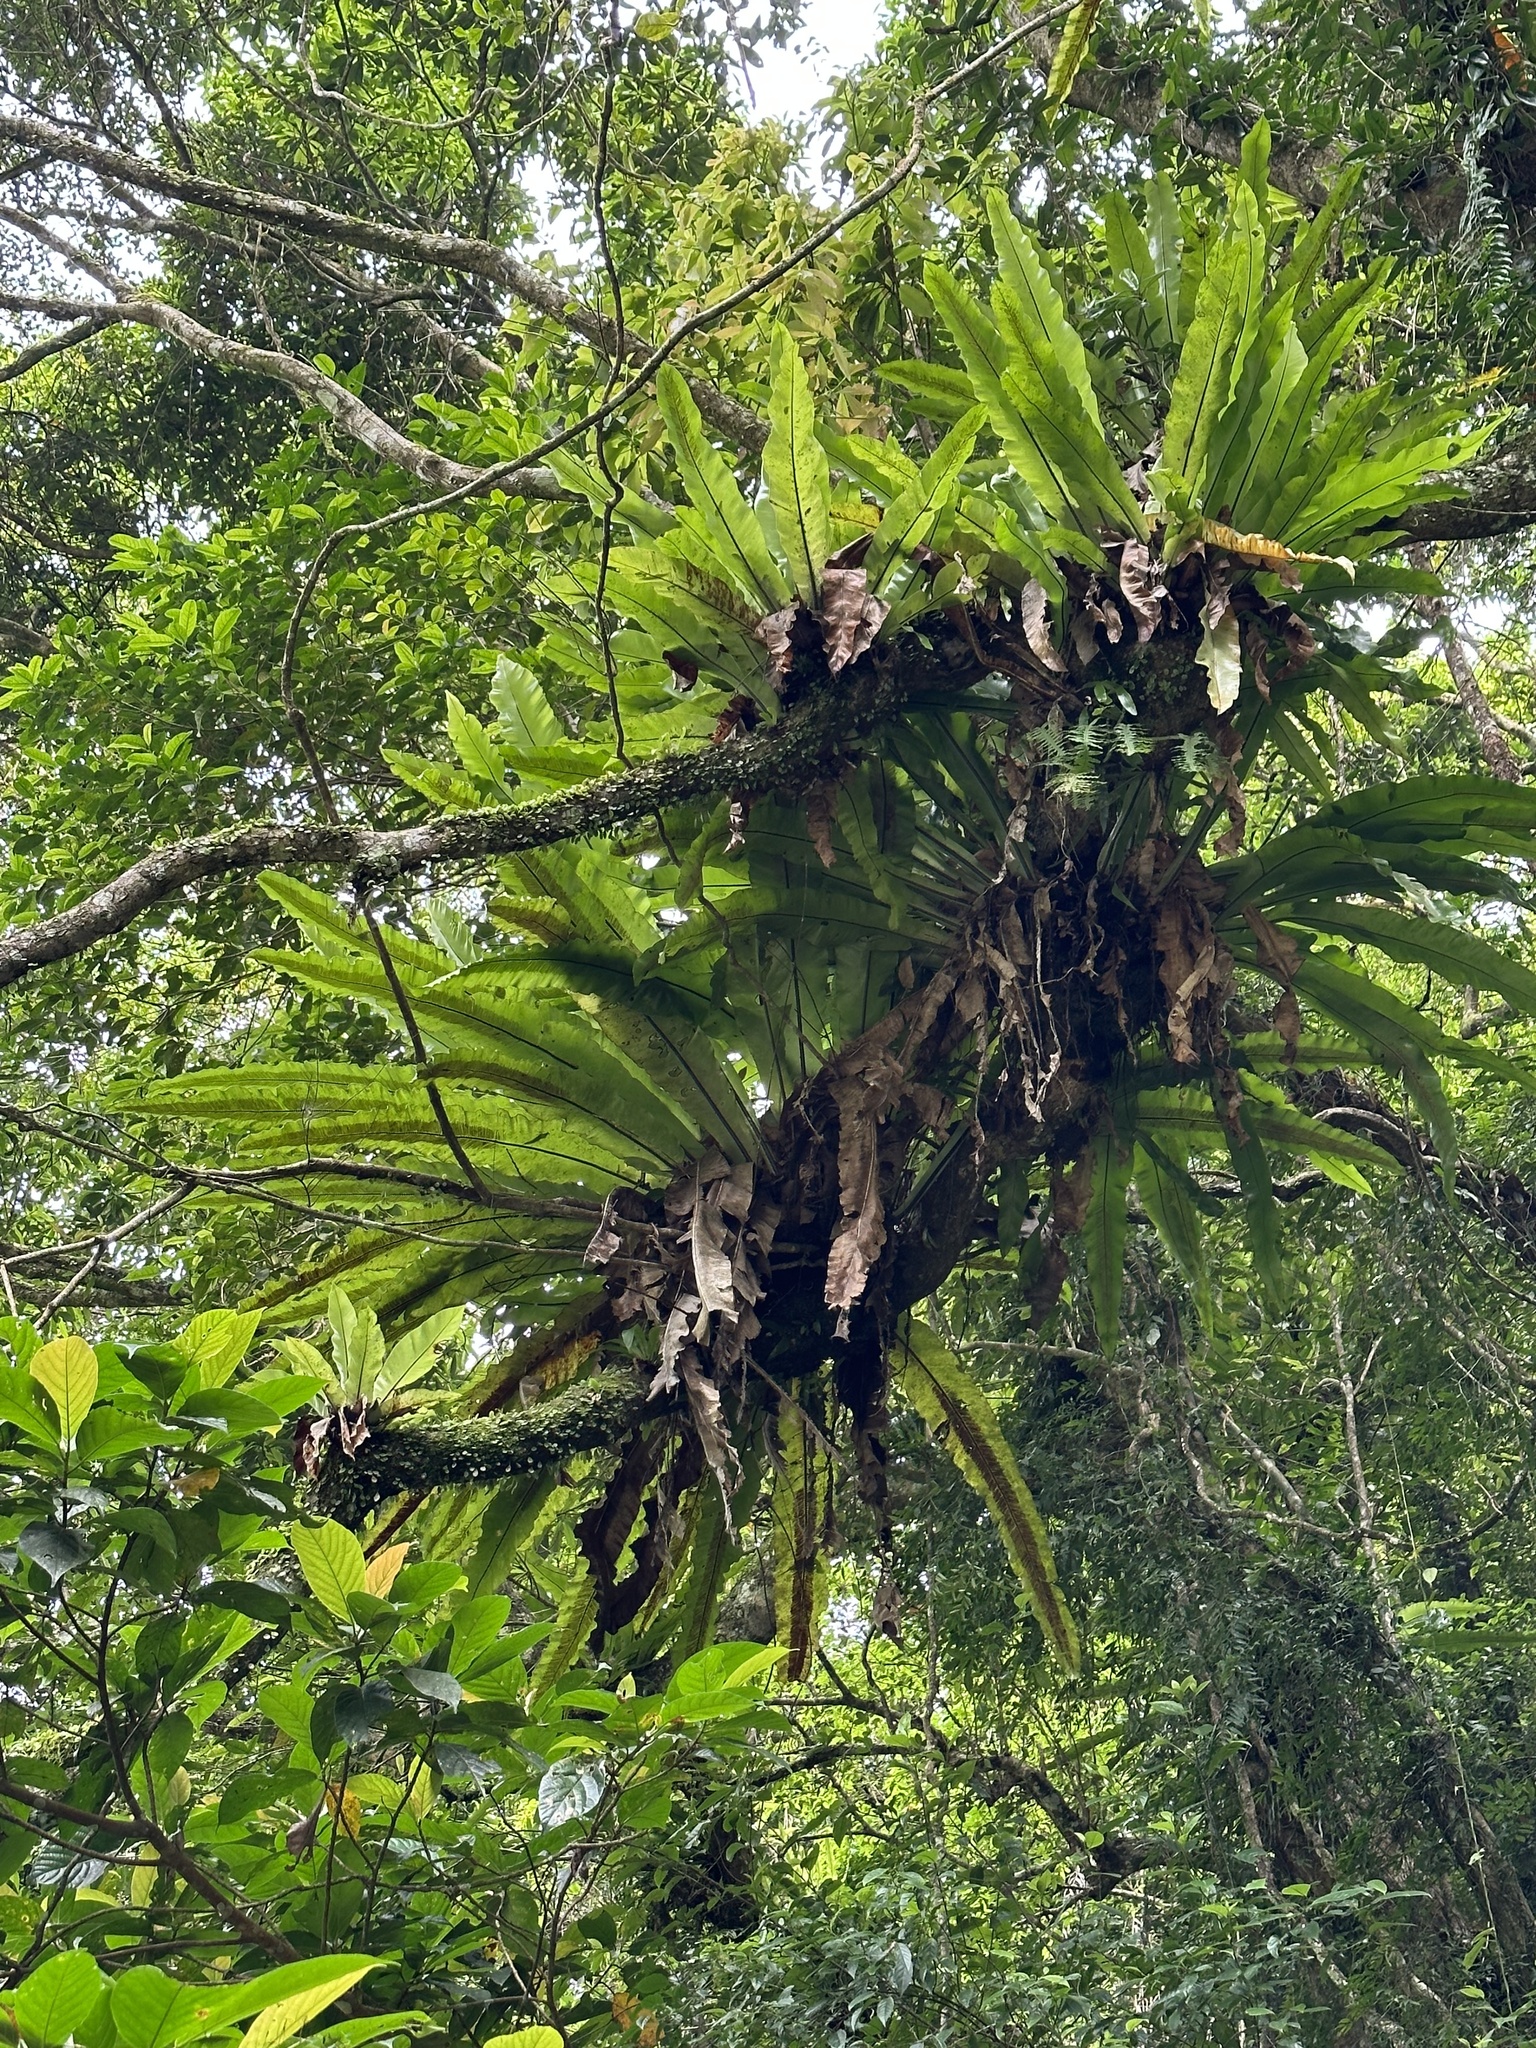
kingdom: Plantae
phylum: Tracheophyta
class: Polypodiopsida
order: Polypodiales
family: Aspleniaceae
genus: Asplenium
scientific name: Asplenium nidus
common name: Bird's-nest fern
